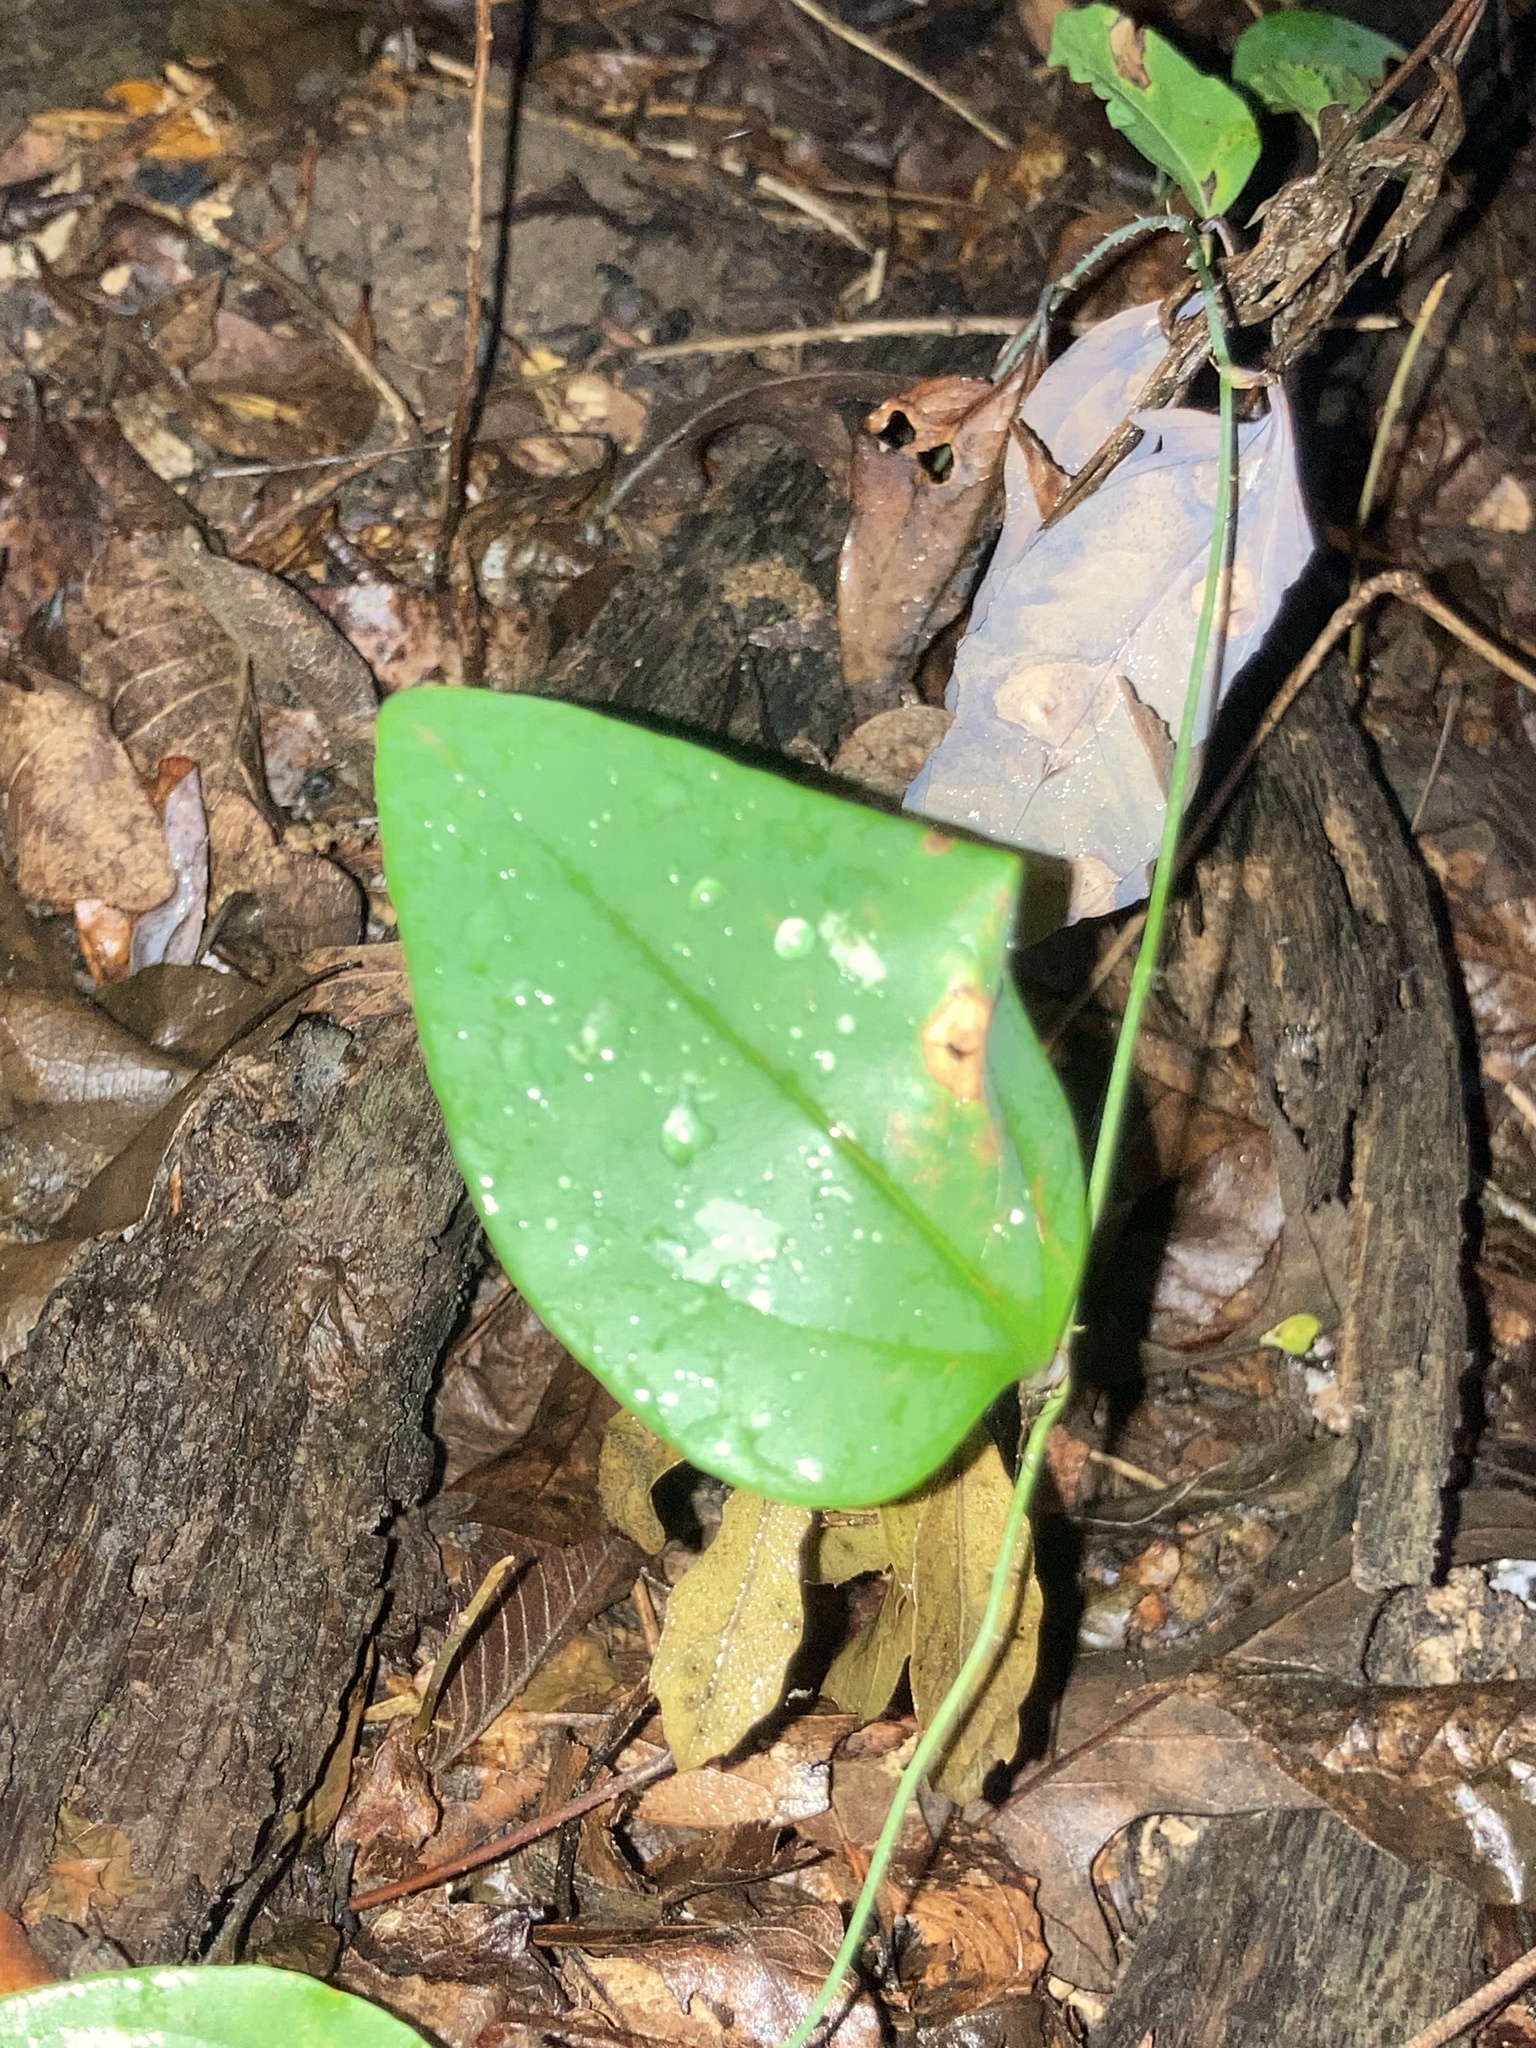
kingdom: Plantae
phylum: Tracheophyta
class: Liliopsida
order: Liliales
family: Smilacaceae
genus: Smilax
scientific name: Smilax glauca
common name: Cat greenbrier
